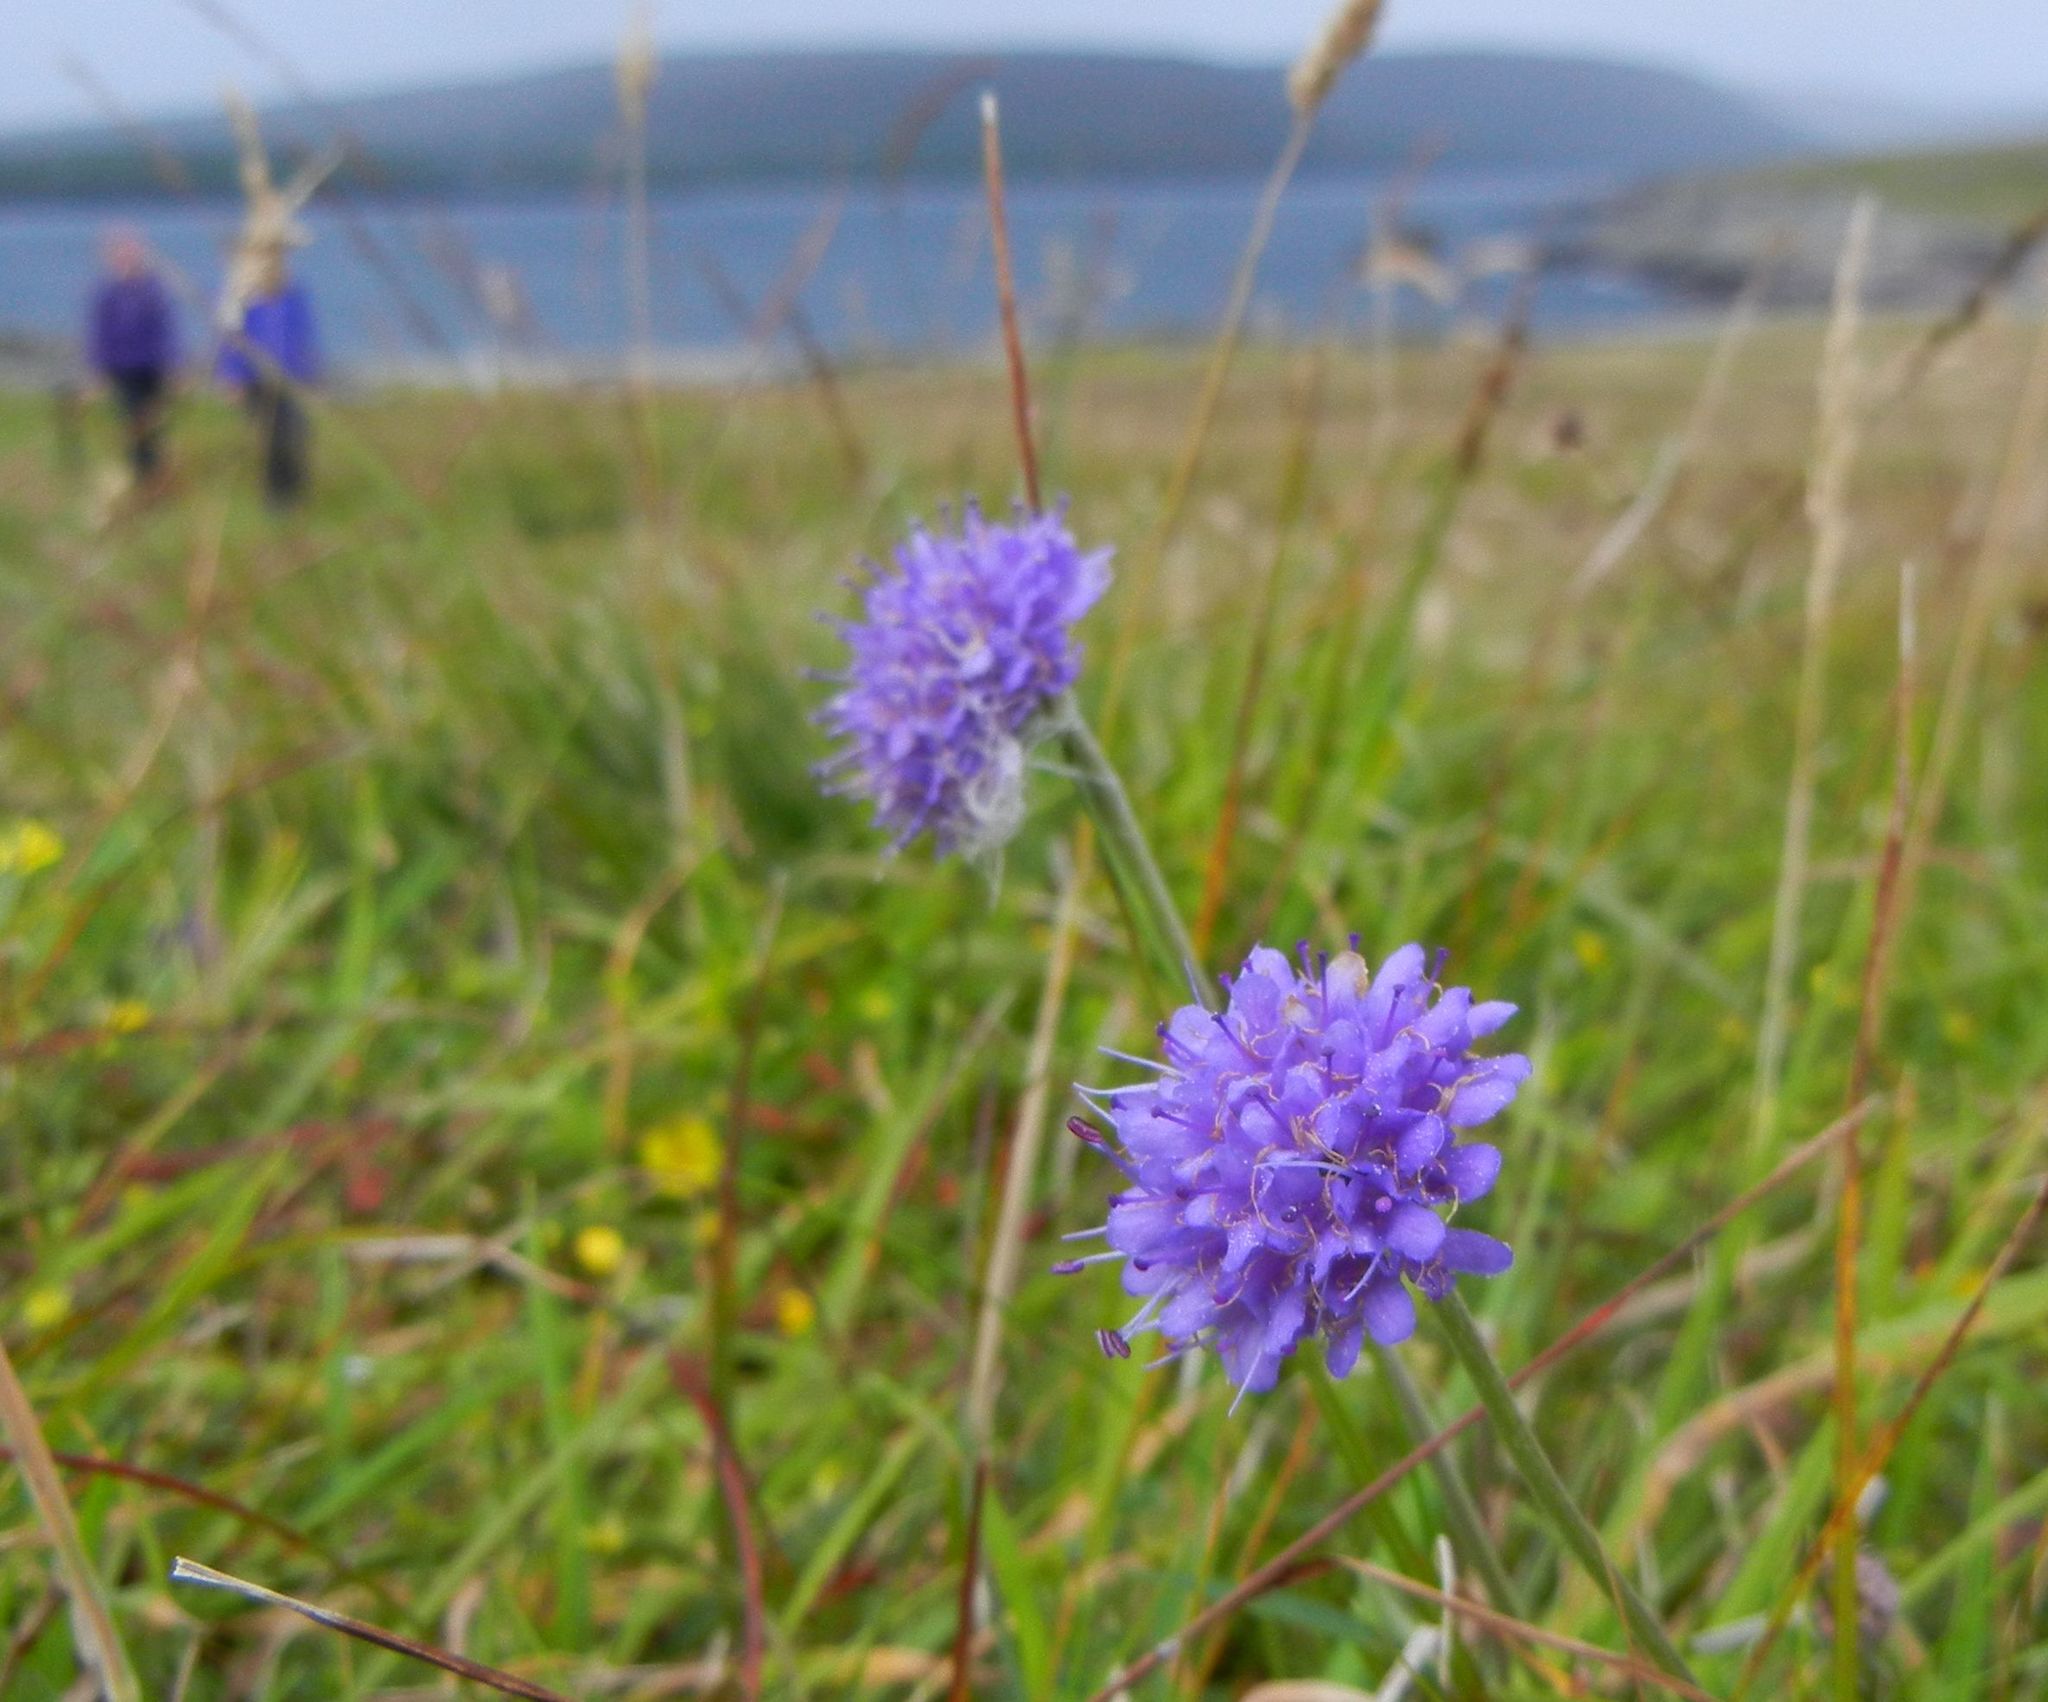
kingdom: Plantae
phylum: Tracheophyta
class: Magnoliopsida
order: Dipsacales
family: Caprifoliaceae
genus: Succisa
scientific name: Succisa pratensis
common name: Devil's-bit
